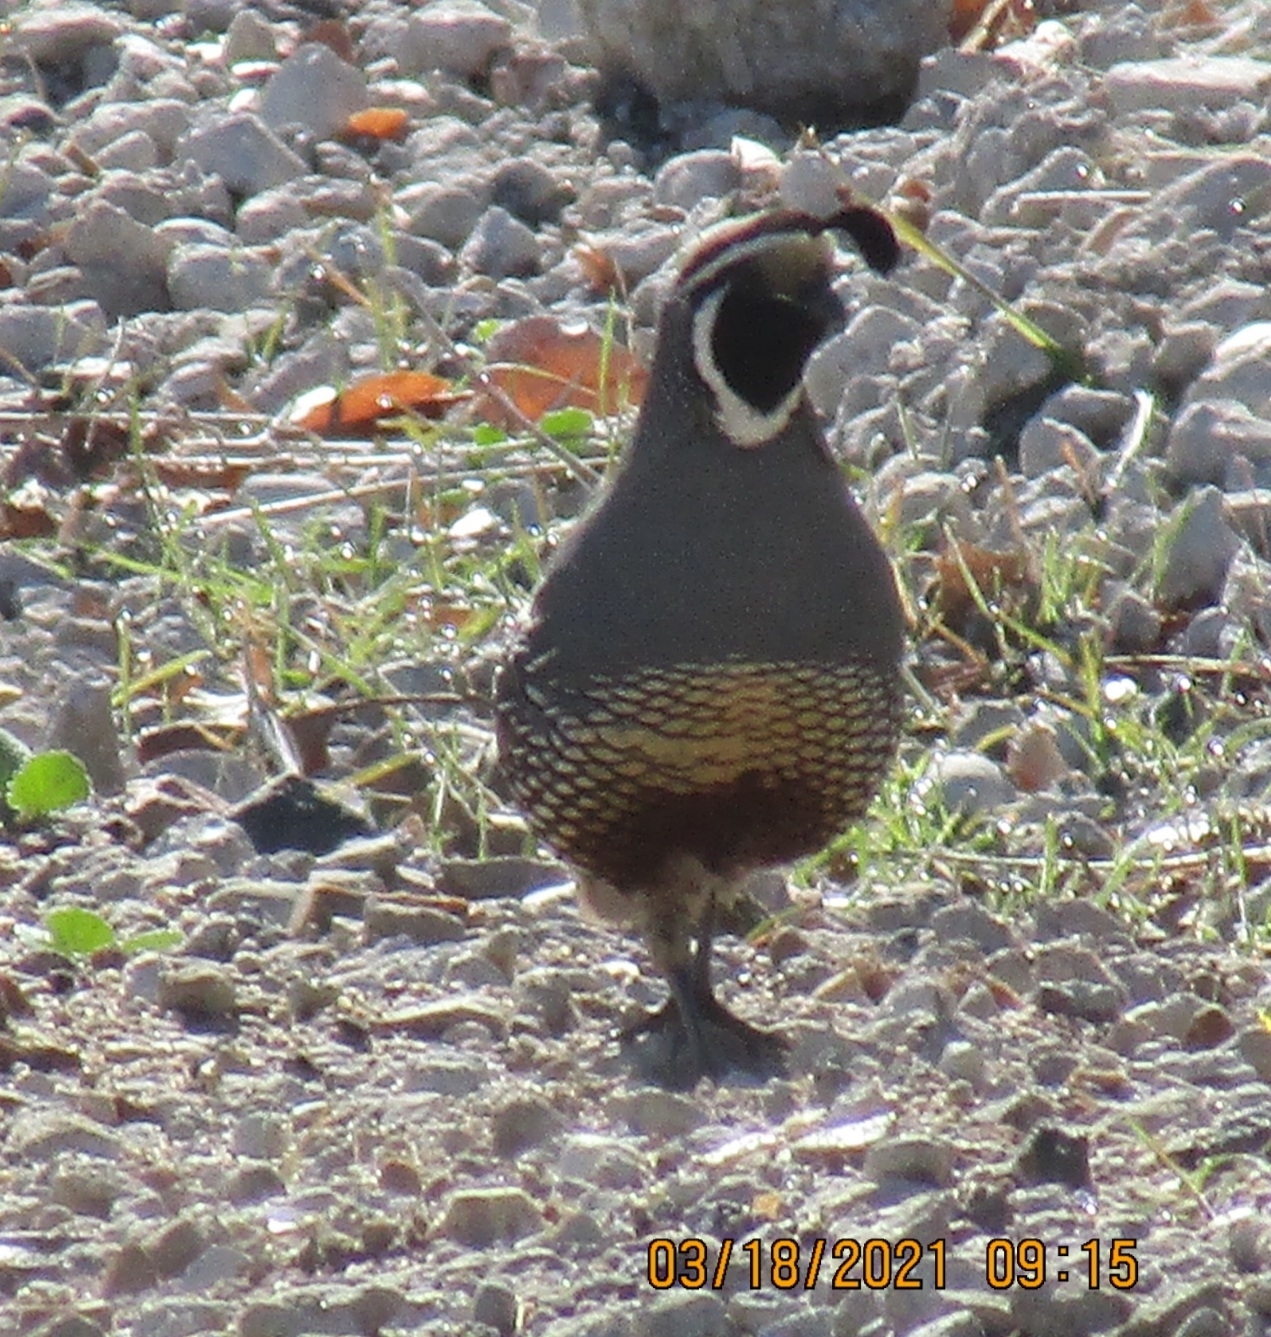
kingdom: Animalia
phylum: Chordata
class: Aves
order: Galliformes
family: Odontophoridae
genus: Callipepla
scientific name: Callipepla californica
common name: California quail
